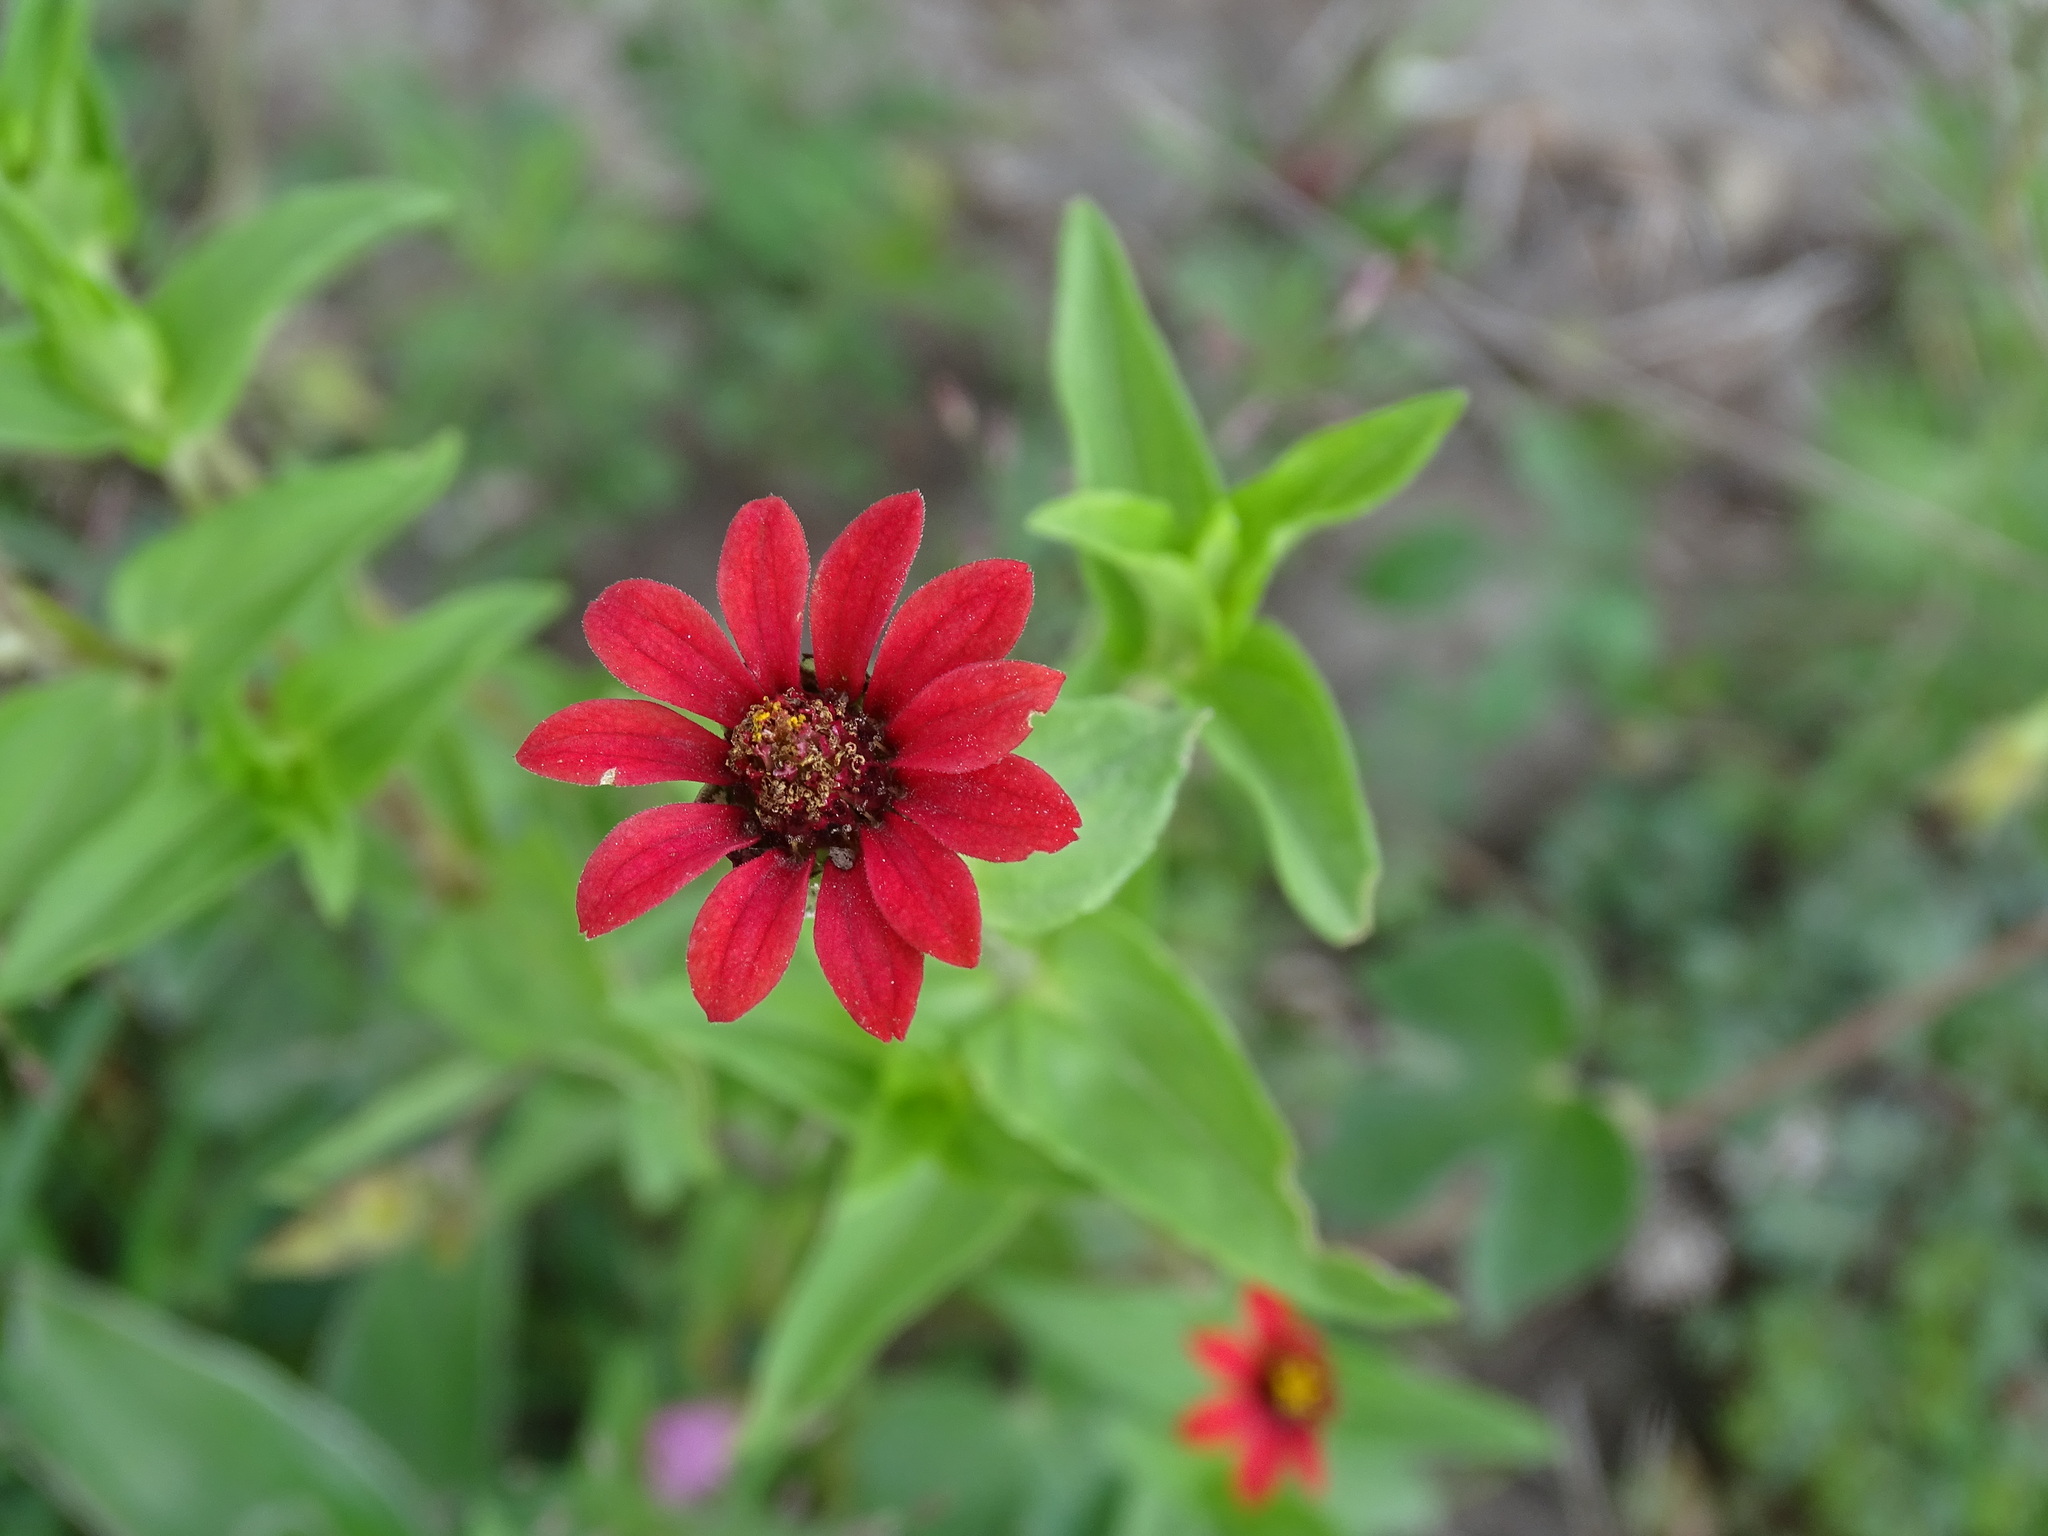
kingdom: Plantae
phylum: Tracheophyta
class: Magnoliopsida
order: Asterales
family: Asteraceae
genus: Zinnia
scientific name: Zinnia peruviana
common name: Peruvian zinnia
